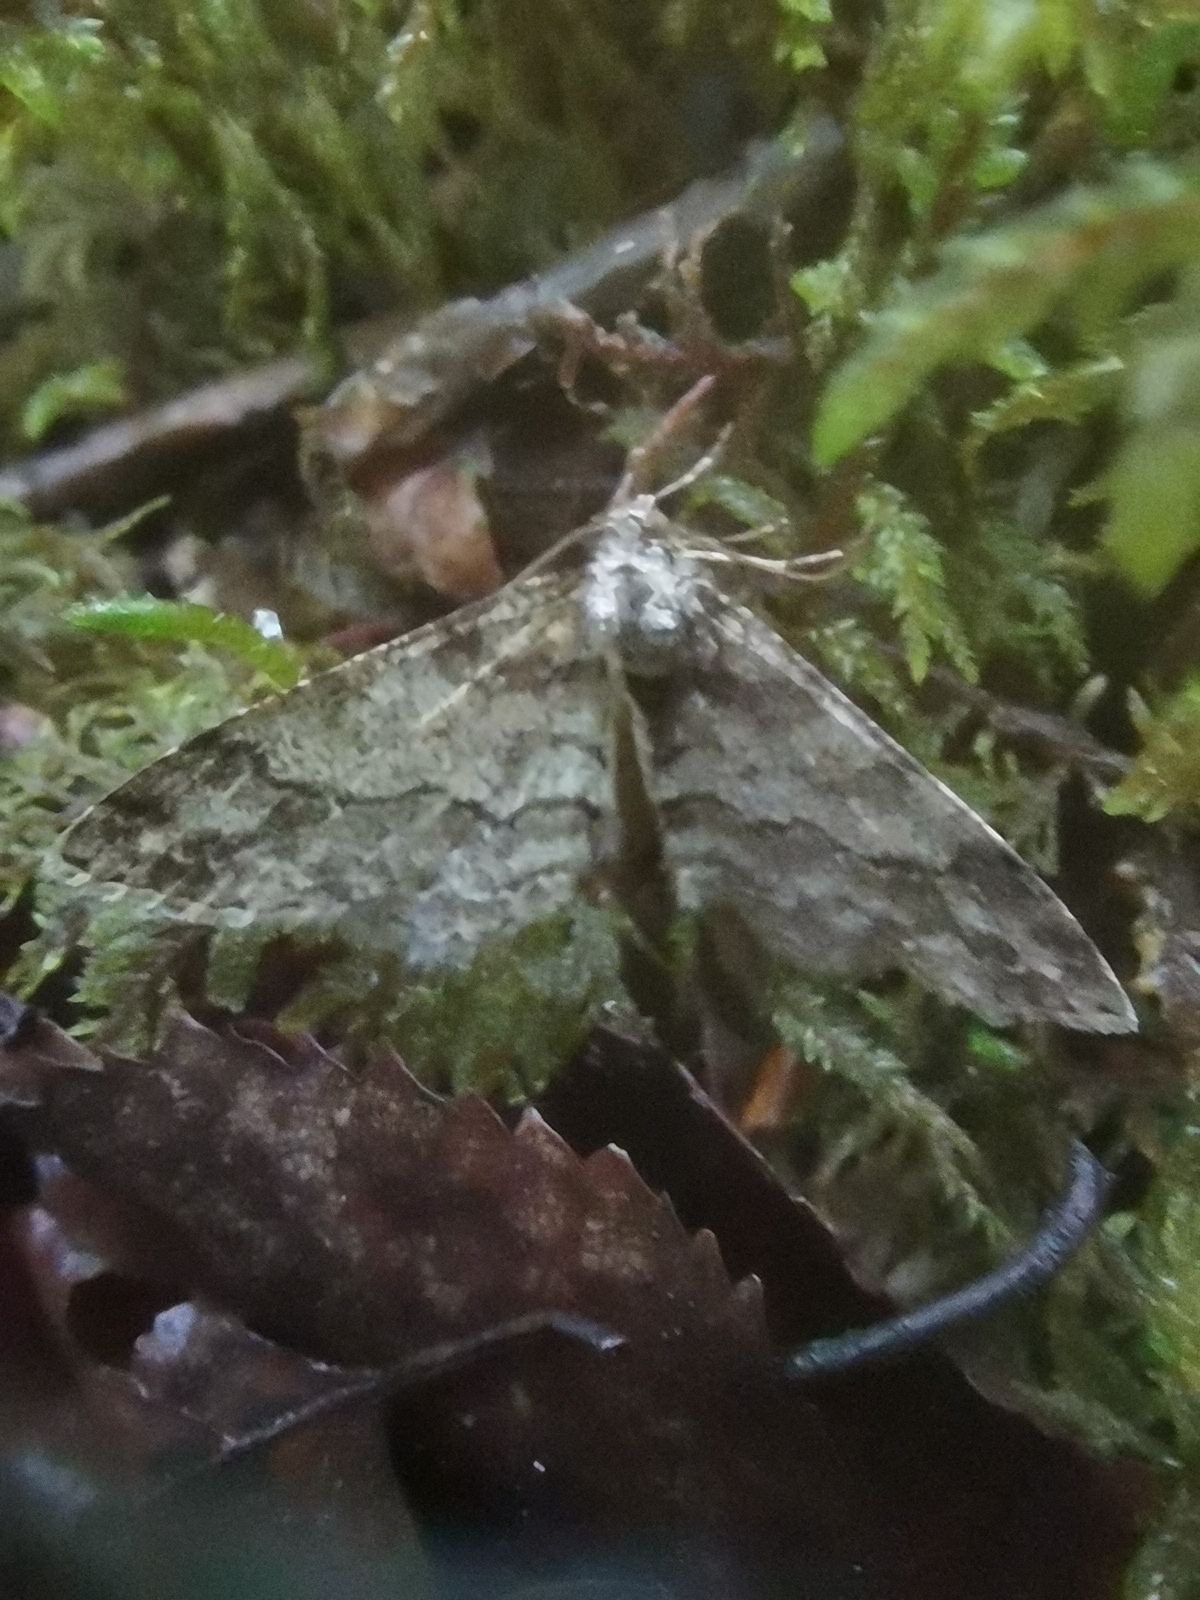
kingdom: Animalia
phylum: Arthropoda
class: Insecta
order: Lepidoptera
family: Geometridae
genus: Cleora
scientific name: Cleora cinctaria
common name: Ringed carpet
